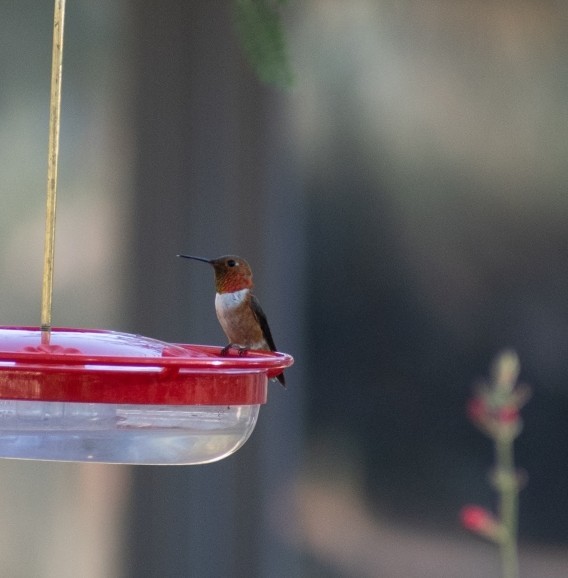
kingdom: Animalia
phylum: Chordata
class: Aves
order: Apodiformes
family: Trochilidae
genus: Selasphorus
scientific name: Selasphorus rufus
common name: Rufous hummingbird
